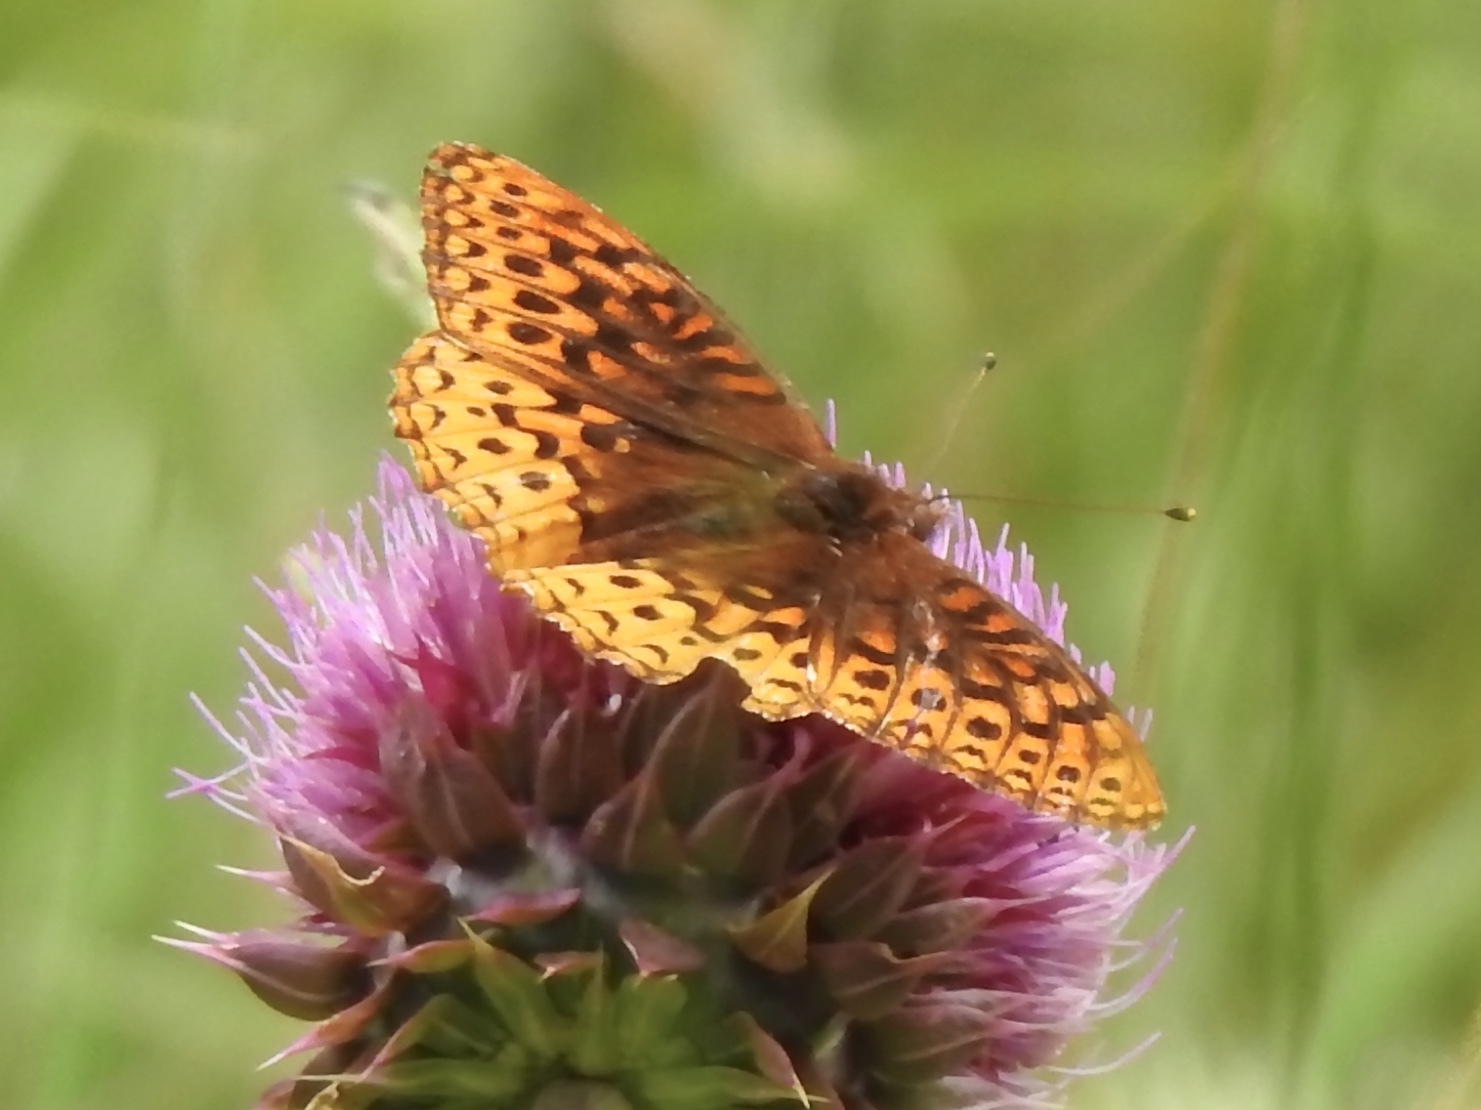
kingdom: Animalia
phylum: Arthropoda
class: Insecta
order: Lepidoptera
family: Nymphalidae
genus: Speyeria
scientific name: Speyeria atlantis
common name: Atlantis fritillary
